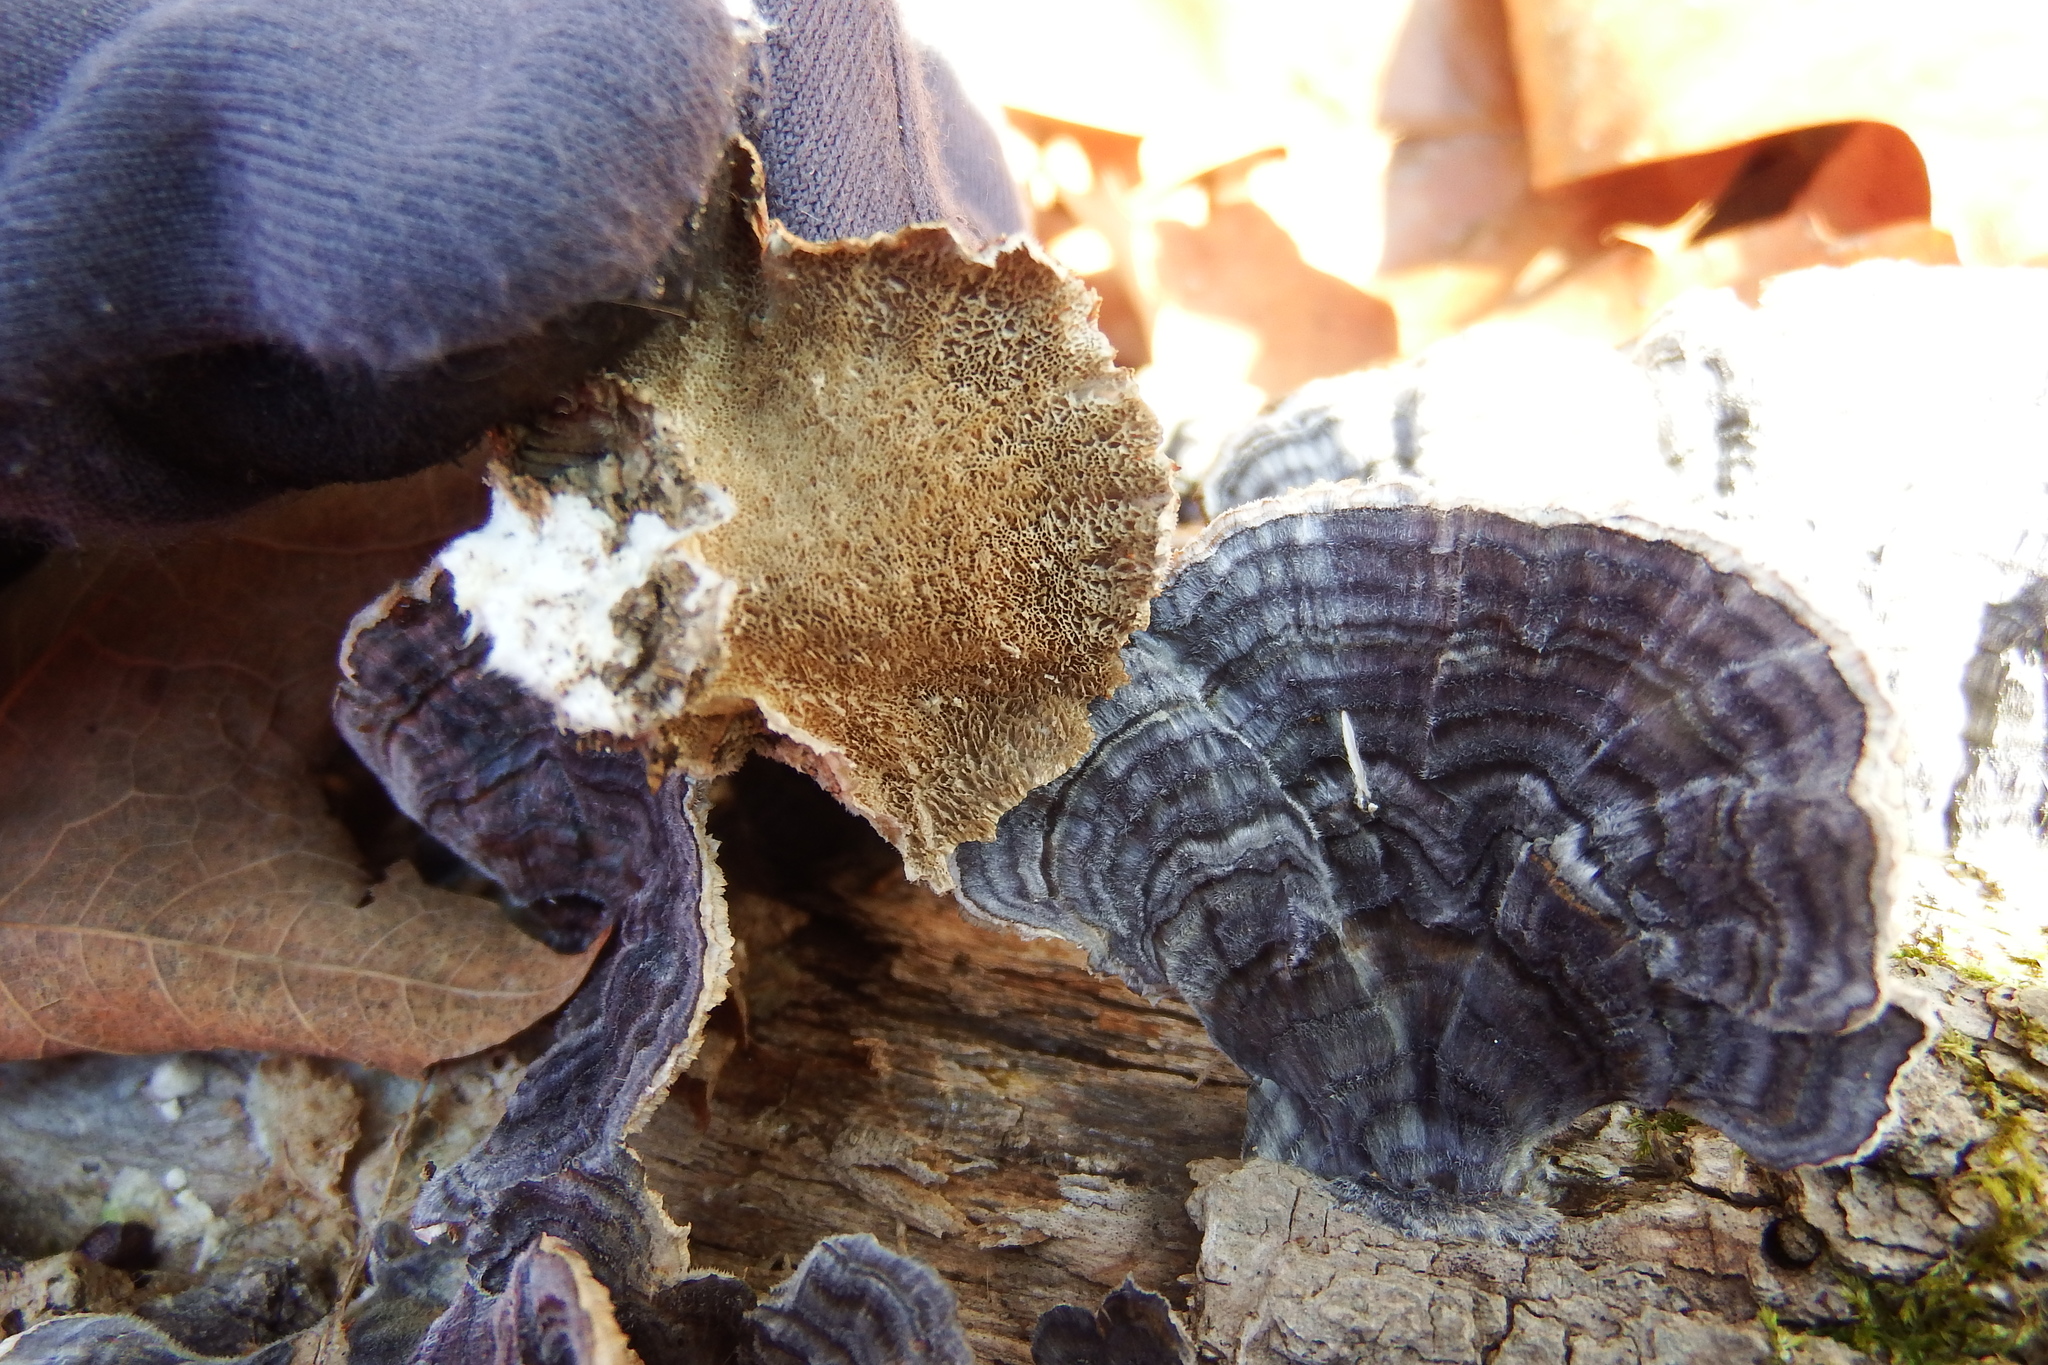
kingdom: Fungi
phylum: Basidiomycota
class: Agaricomycetes
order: Polyporales
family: Polyporaceae
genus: Trametes
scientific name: Trametes versicolor
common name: Turkeytail
